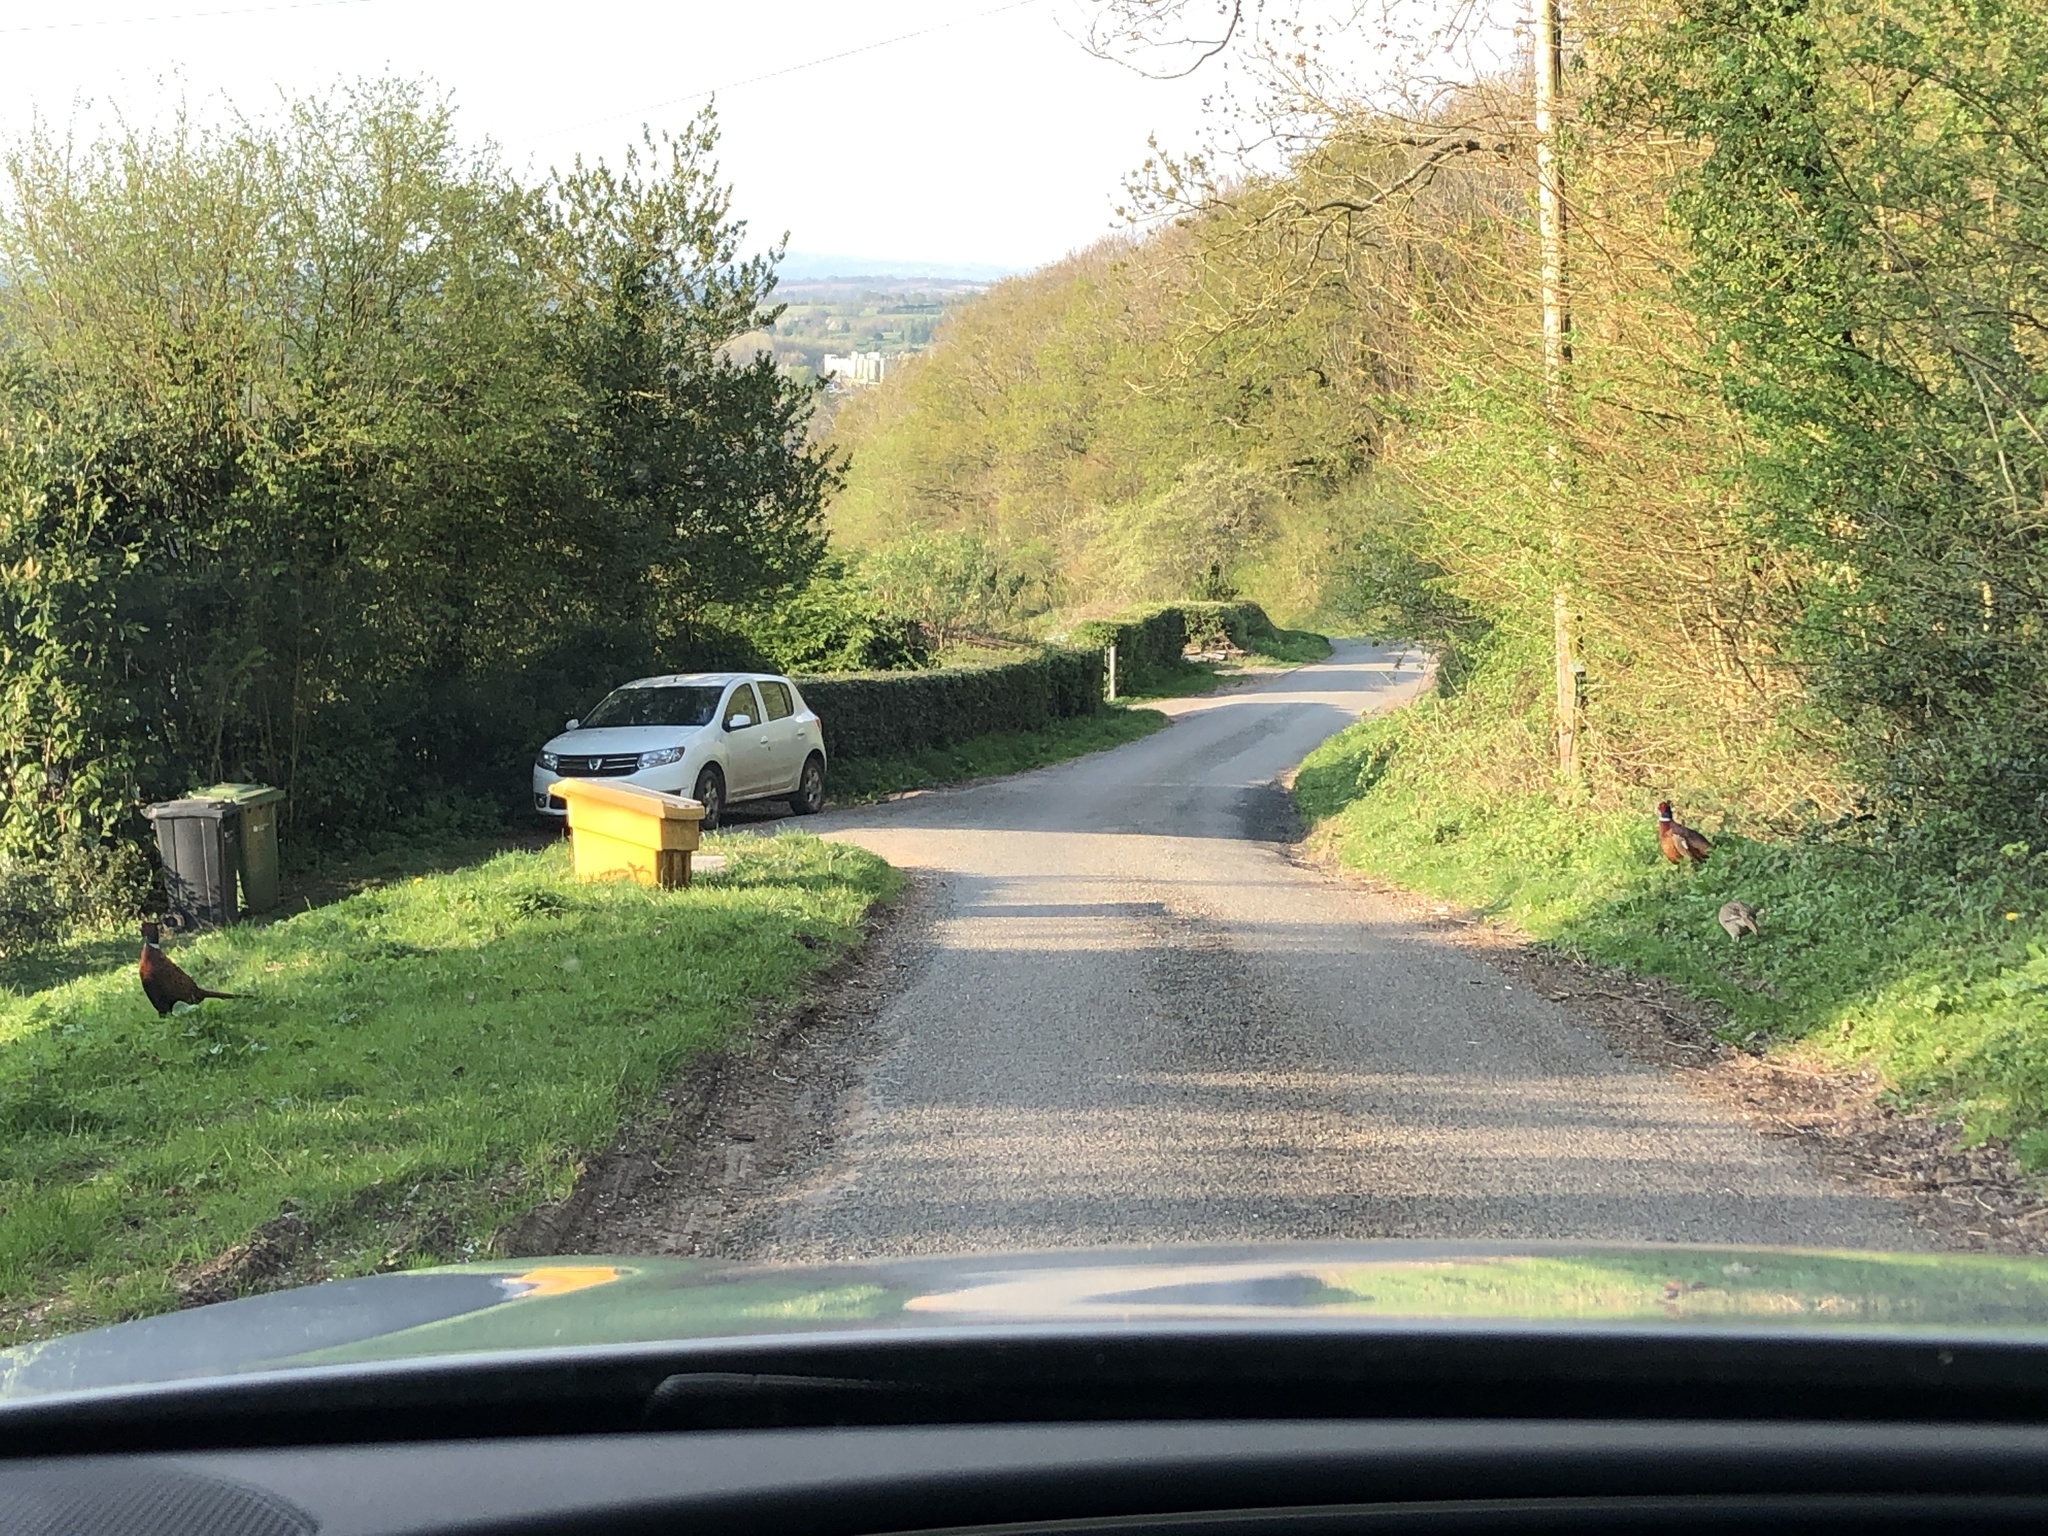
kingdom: Animalia
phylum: Chordata
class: Aves
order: Galliformes
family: Phasianidae
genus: Phasianus
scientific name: Phasianus colchicus
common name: Common pheasant
